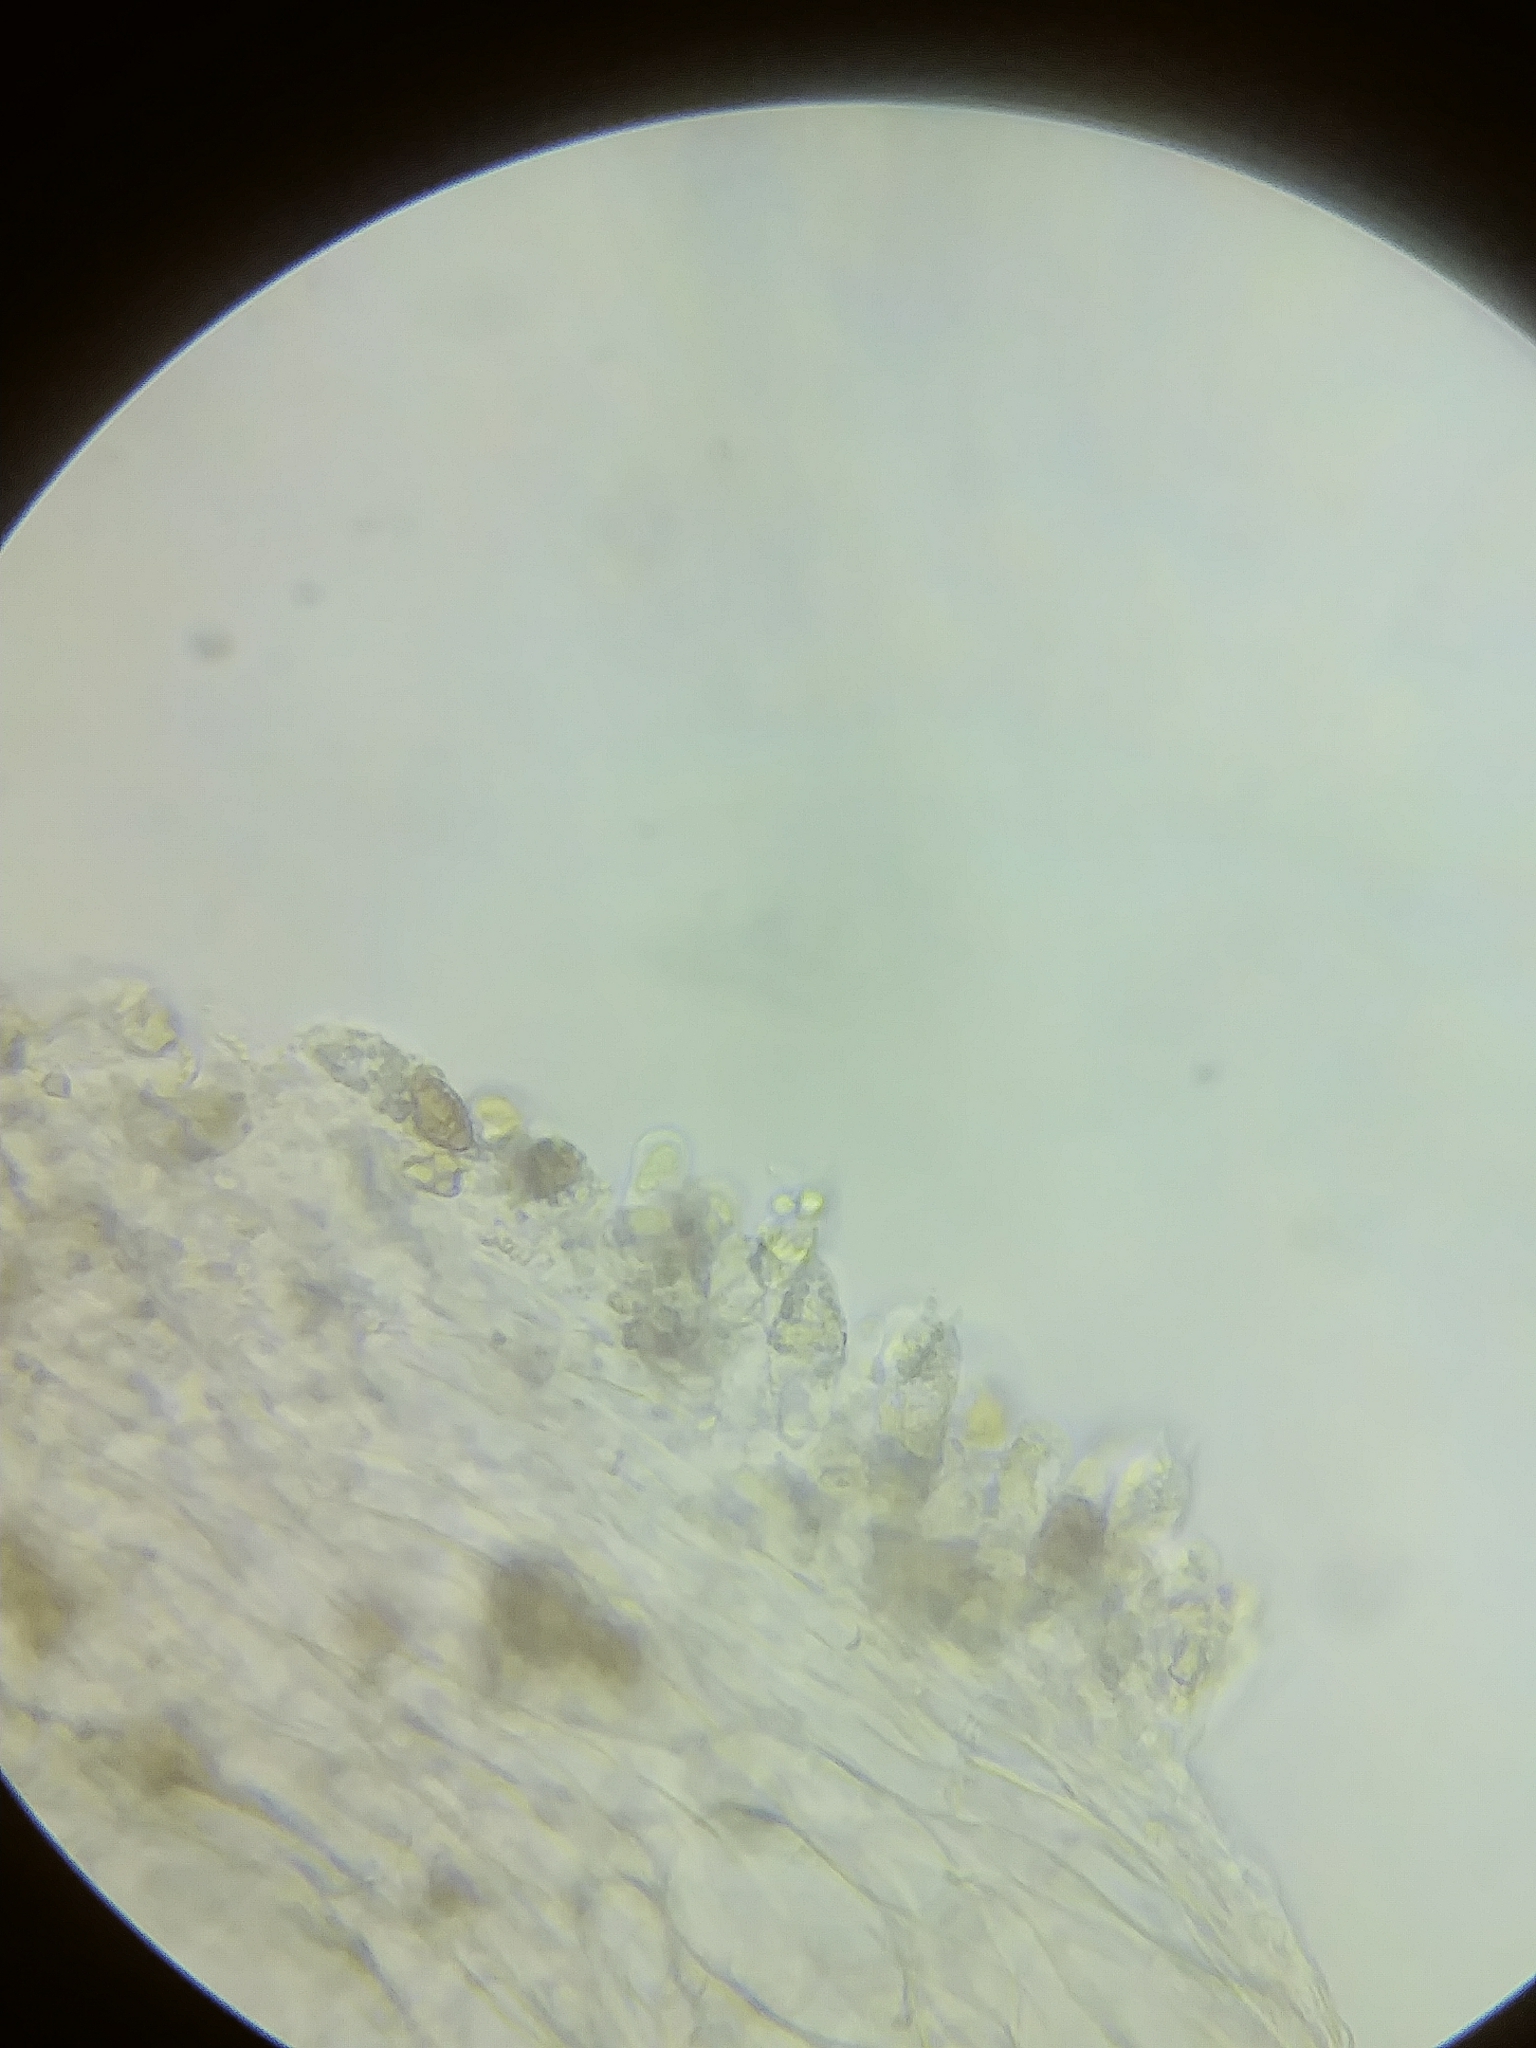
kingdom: Fungi
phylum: Basidiomycota
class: Agaricomycetes
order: Agaricales
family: Cortinariaceae
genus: Thaxterogaster
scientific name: Thaxterogaster glaucocyanopus
